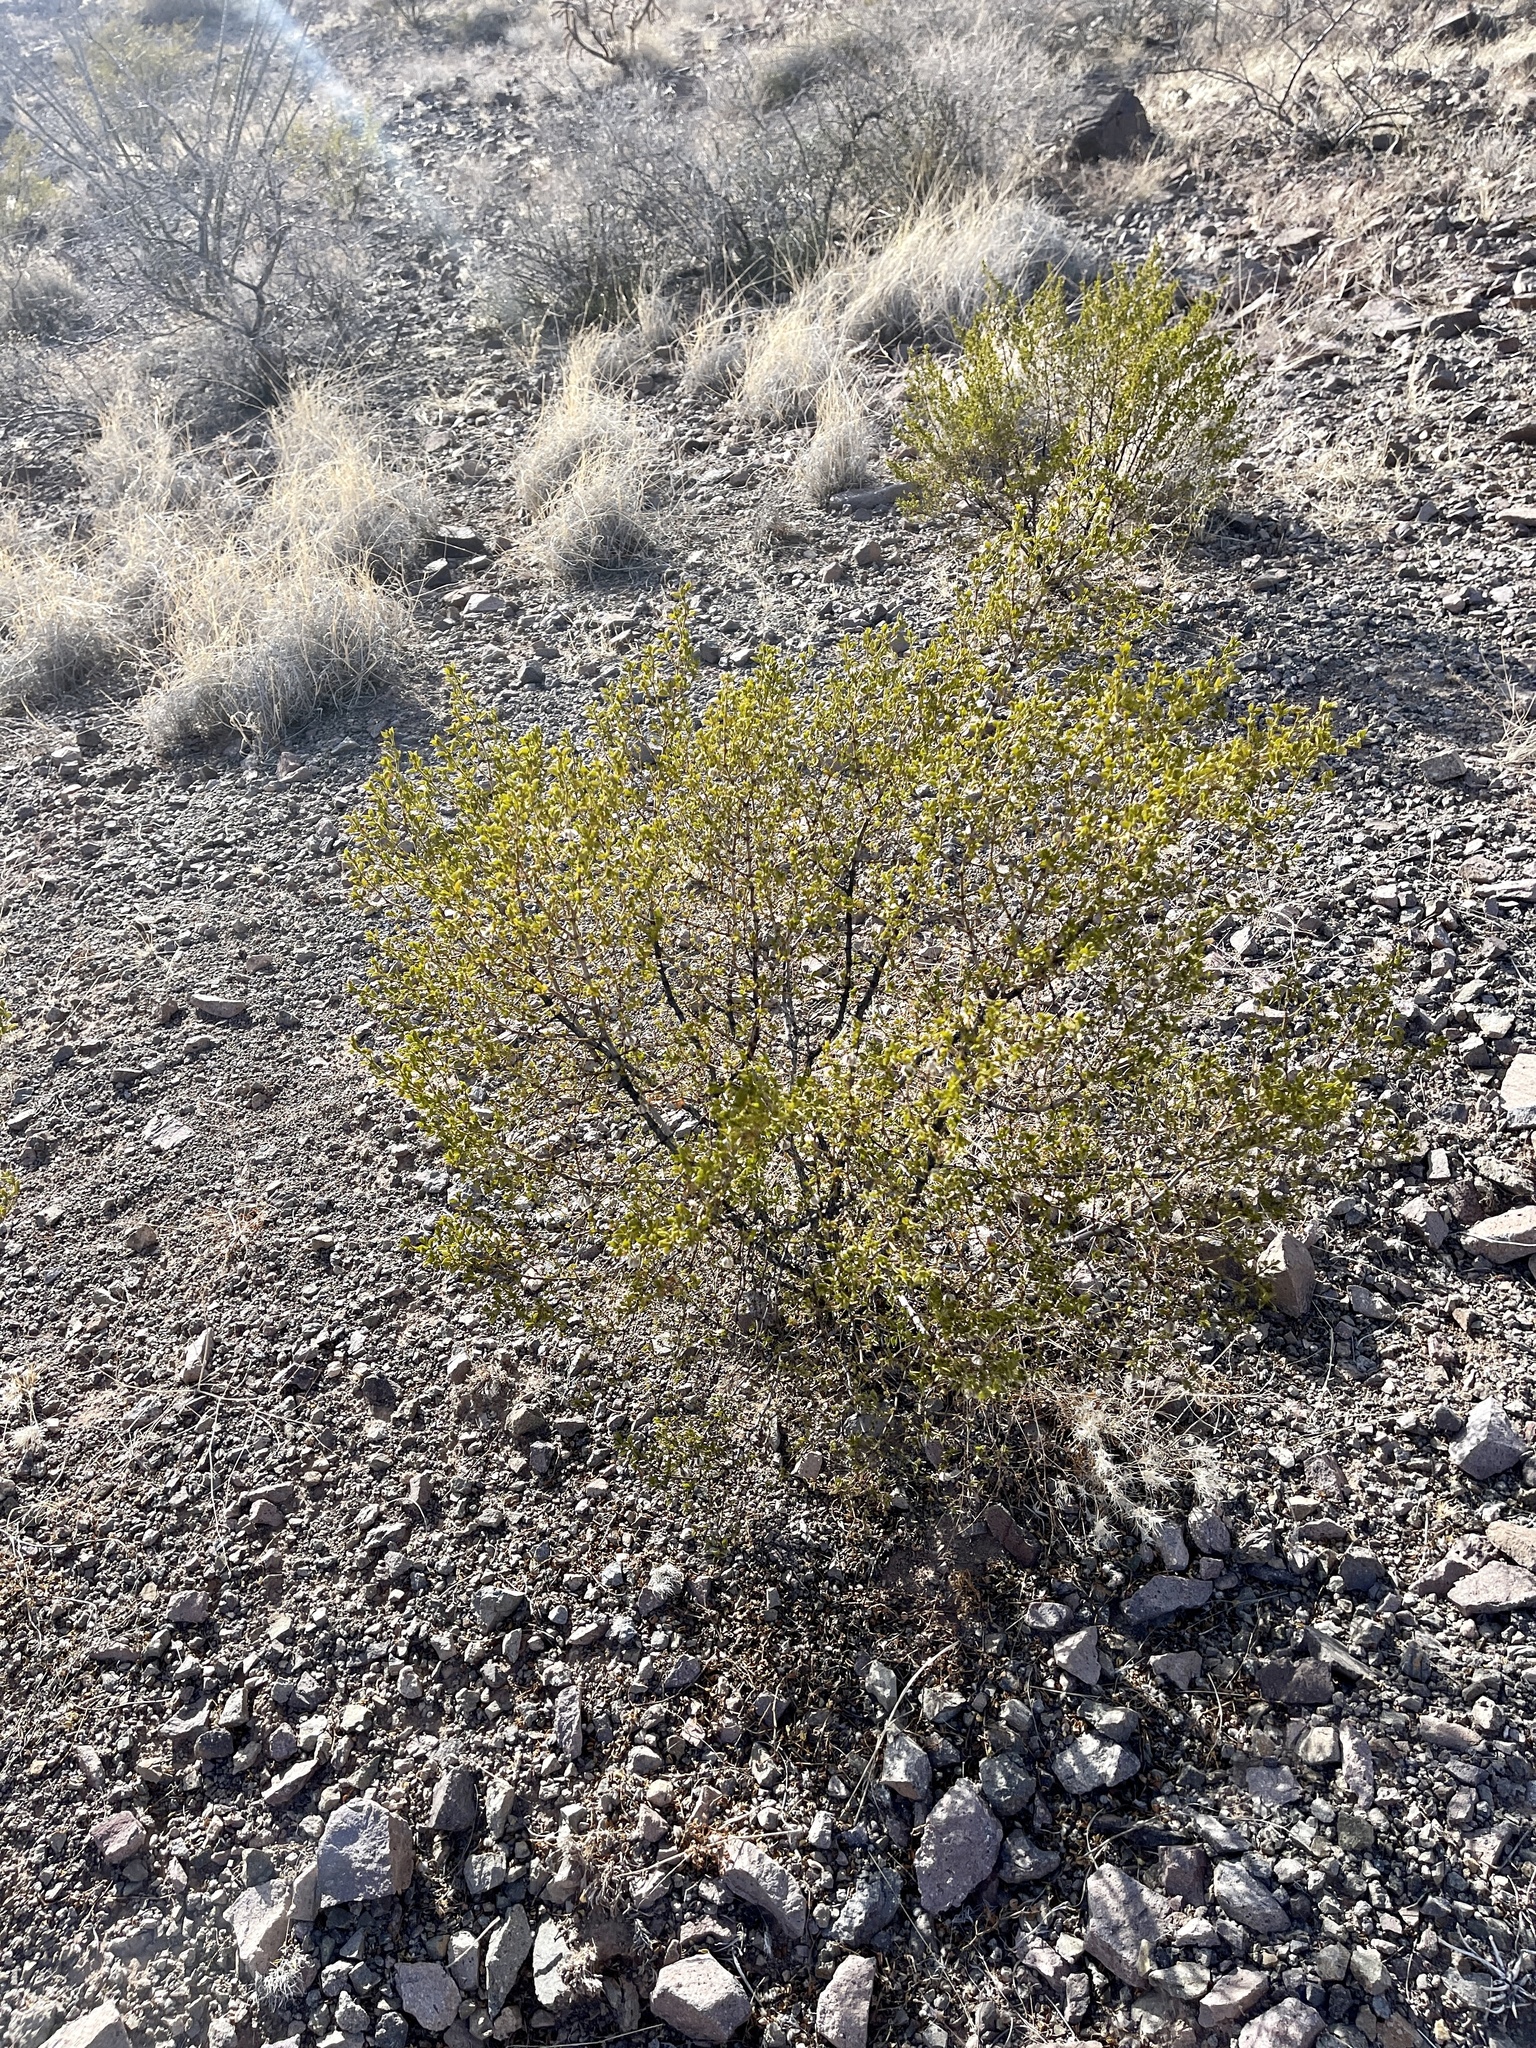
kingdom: Plantae
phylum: Tracheophyta
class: Magnoliopsida
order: Zygophyllales
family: Zygophyllaceae
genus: Larrea
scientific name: Larrea tridentata
